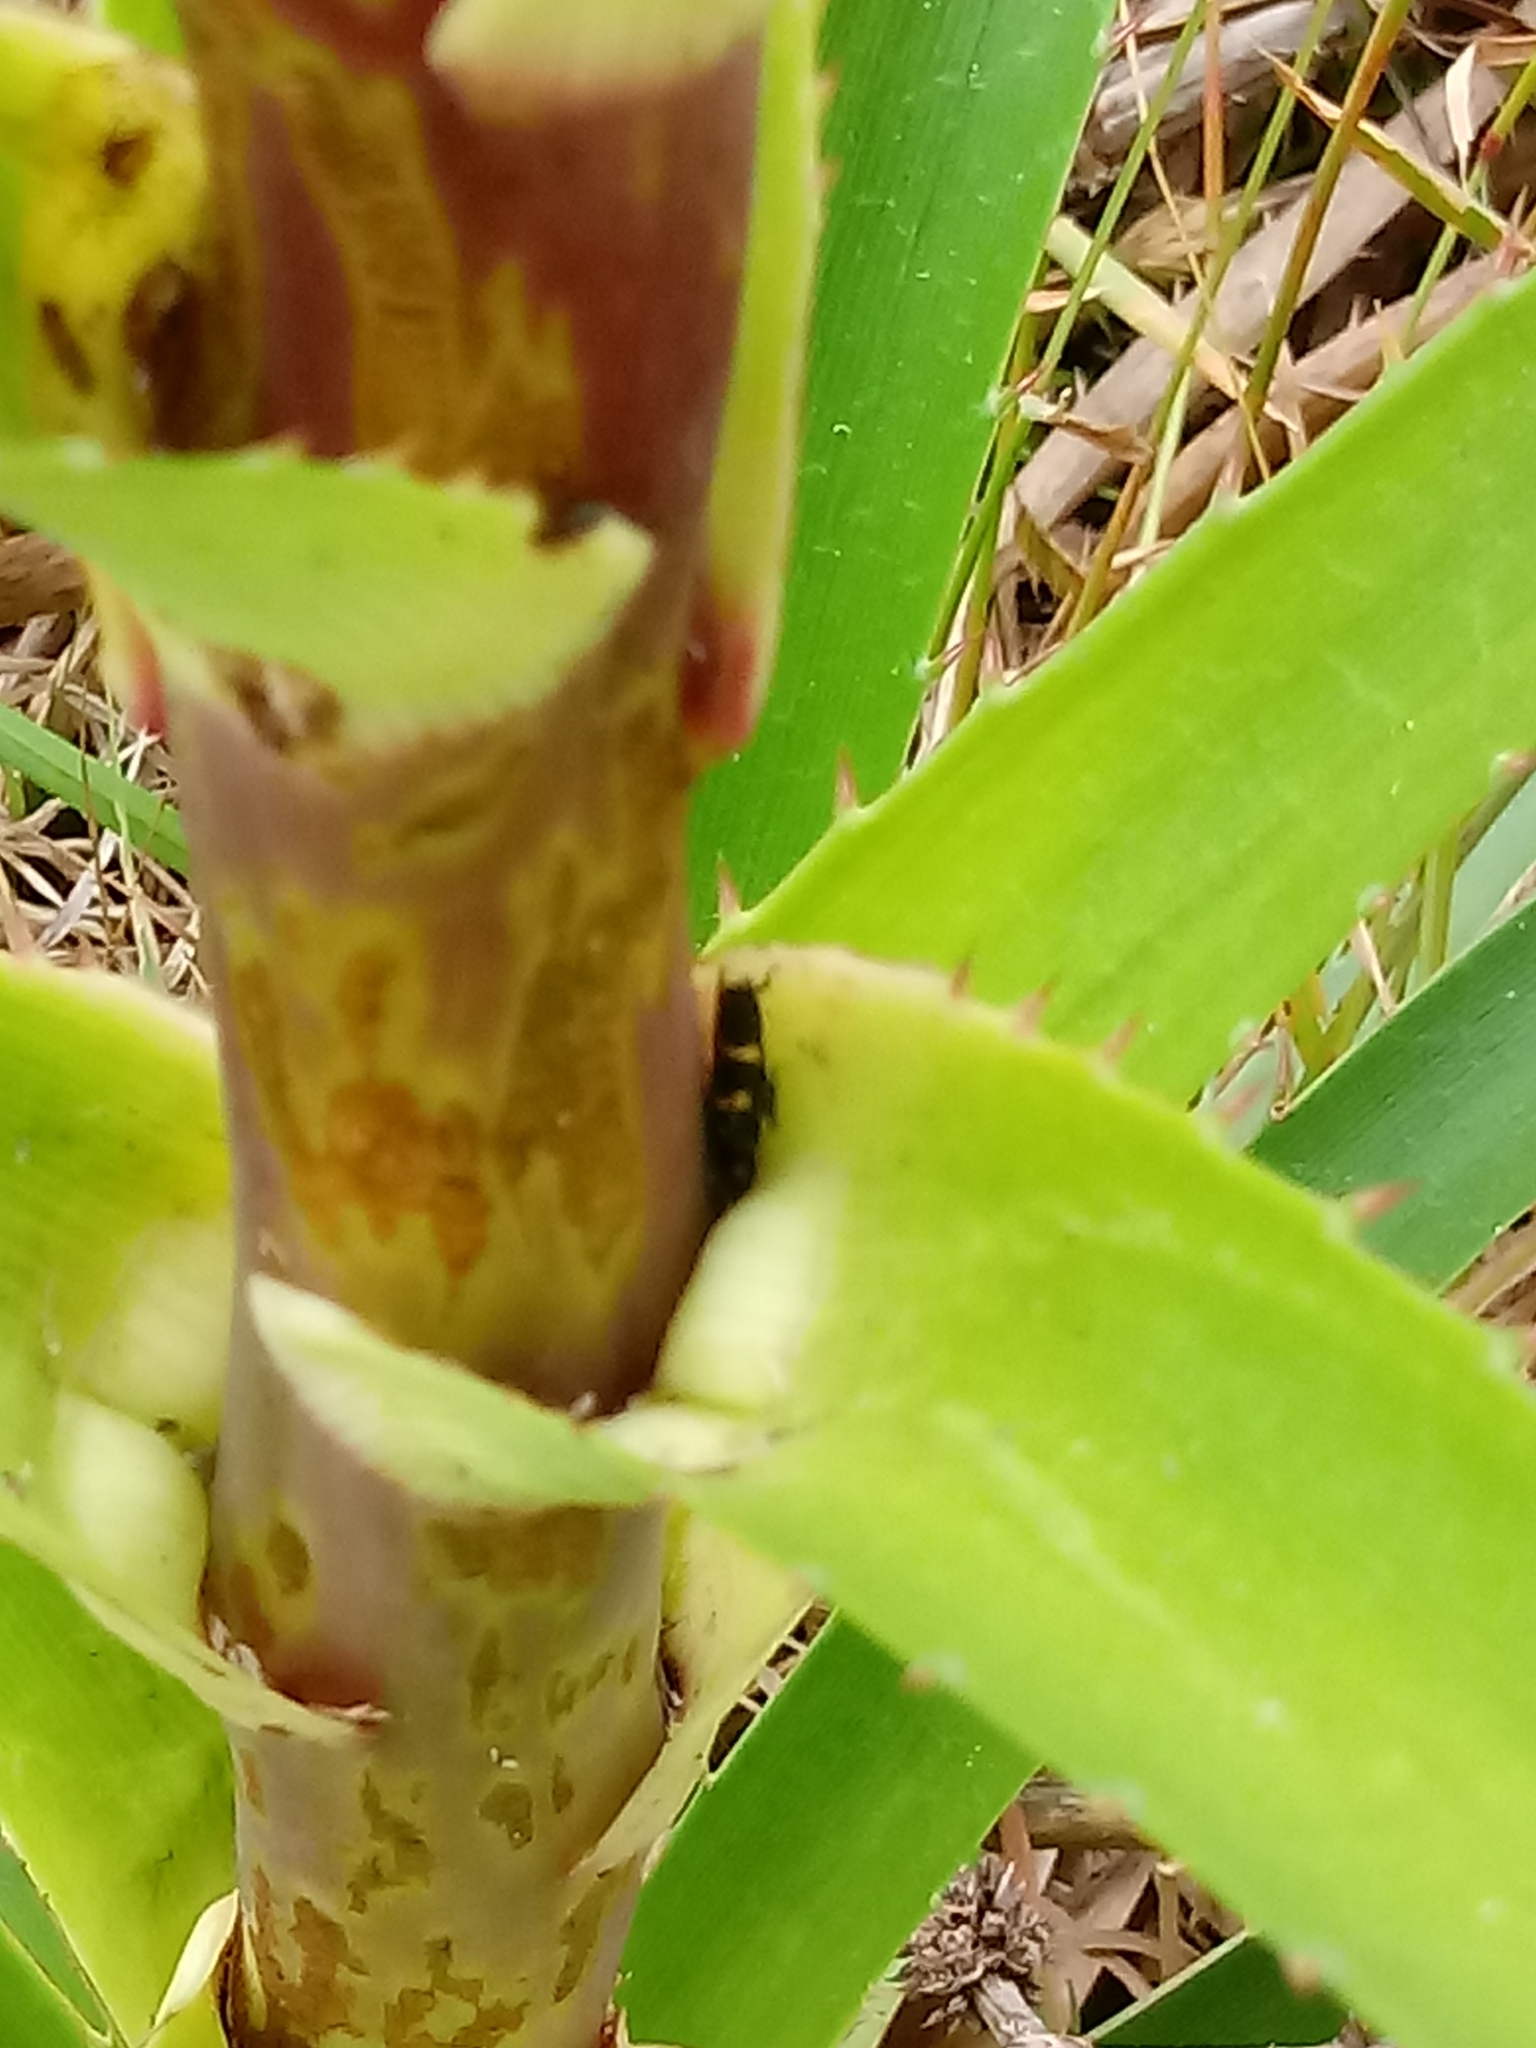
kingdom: Animalia
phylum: Arthropoda
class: Insecta
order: Hemiptera
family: Cicadellidae
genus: Ochrostacta
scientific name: Ochrostacta diadema
